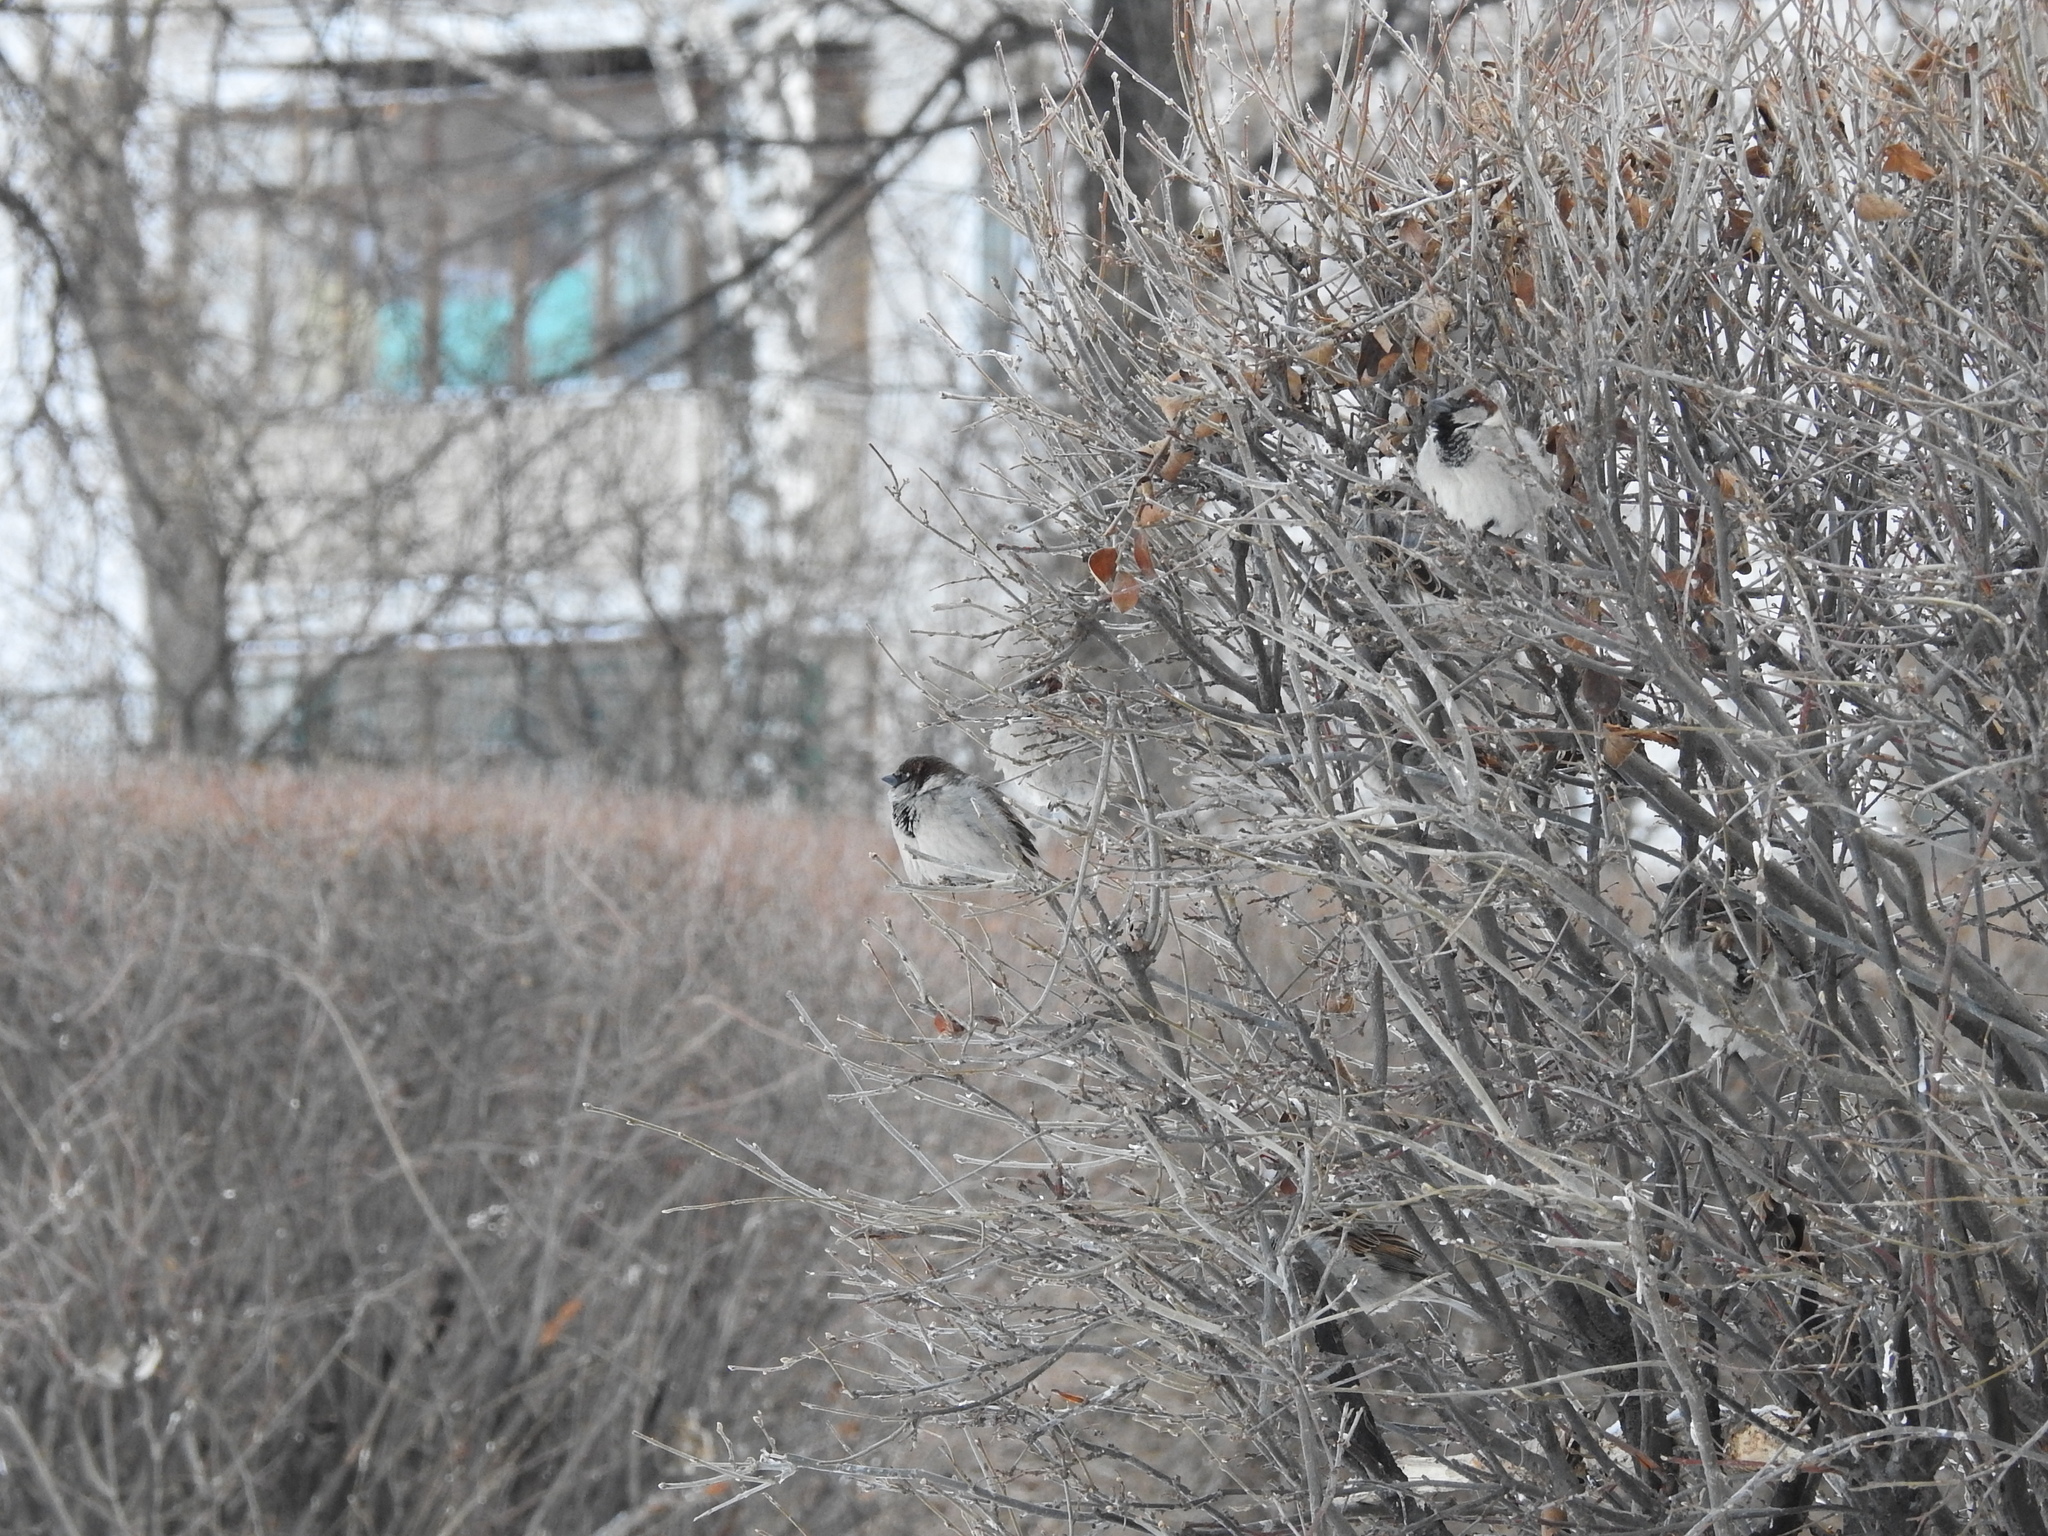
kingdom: Animalia
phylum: Chordata
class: Aves
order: Passeriformes
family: Passeridae
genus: Passer
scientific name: Passer domesticus
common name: House sparrow
